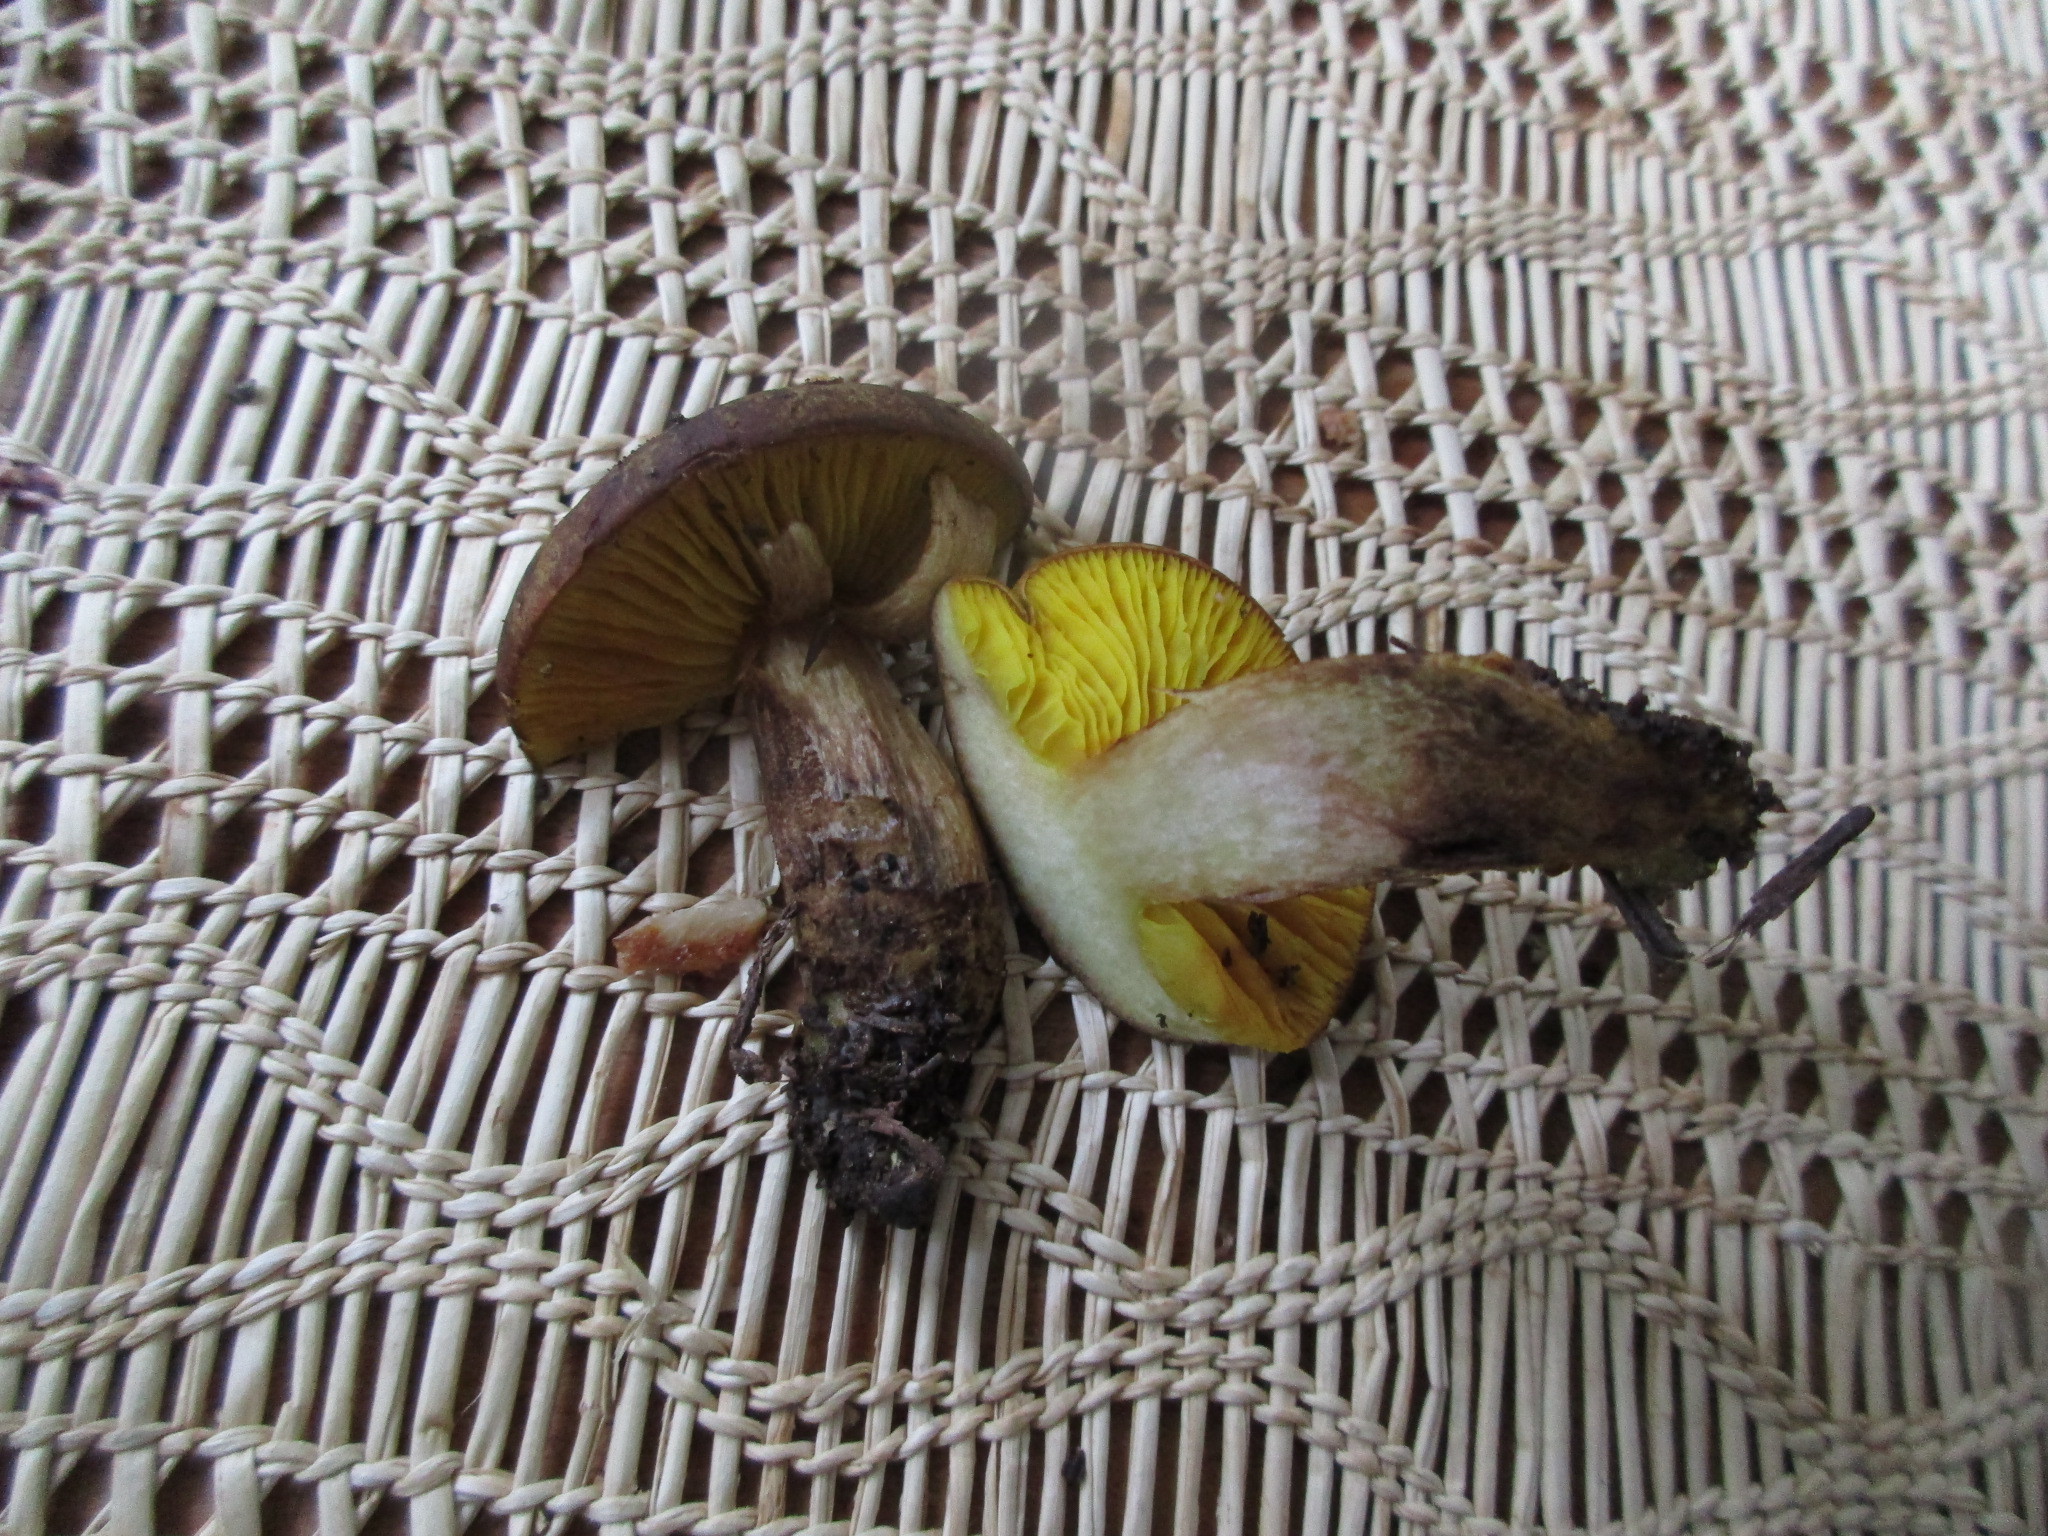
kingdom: Fungi
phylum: Basidiomycota
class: Agaricomycetes
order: Boletales
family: Boletaceae
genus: Phylloporus
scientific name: Phylloporus arenicola
